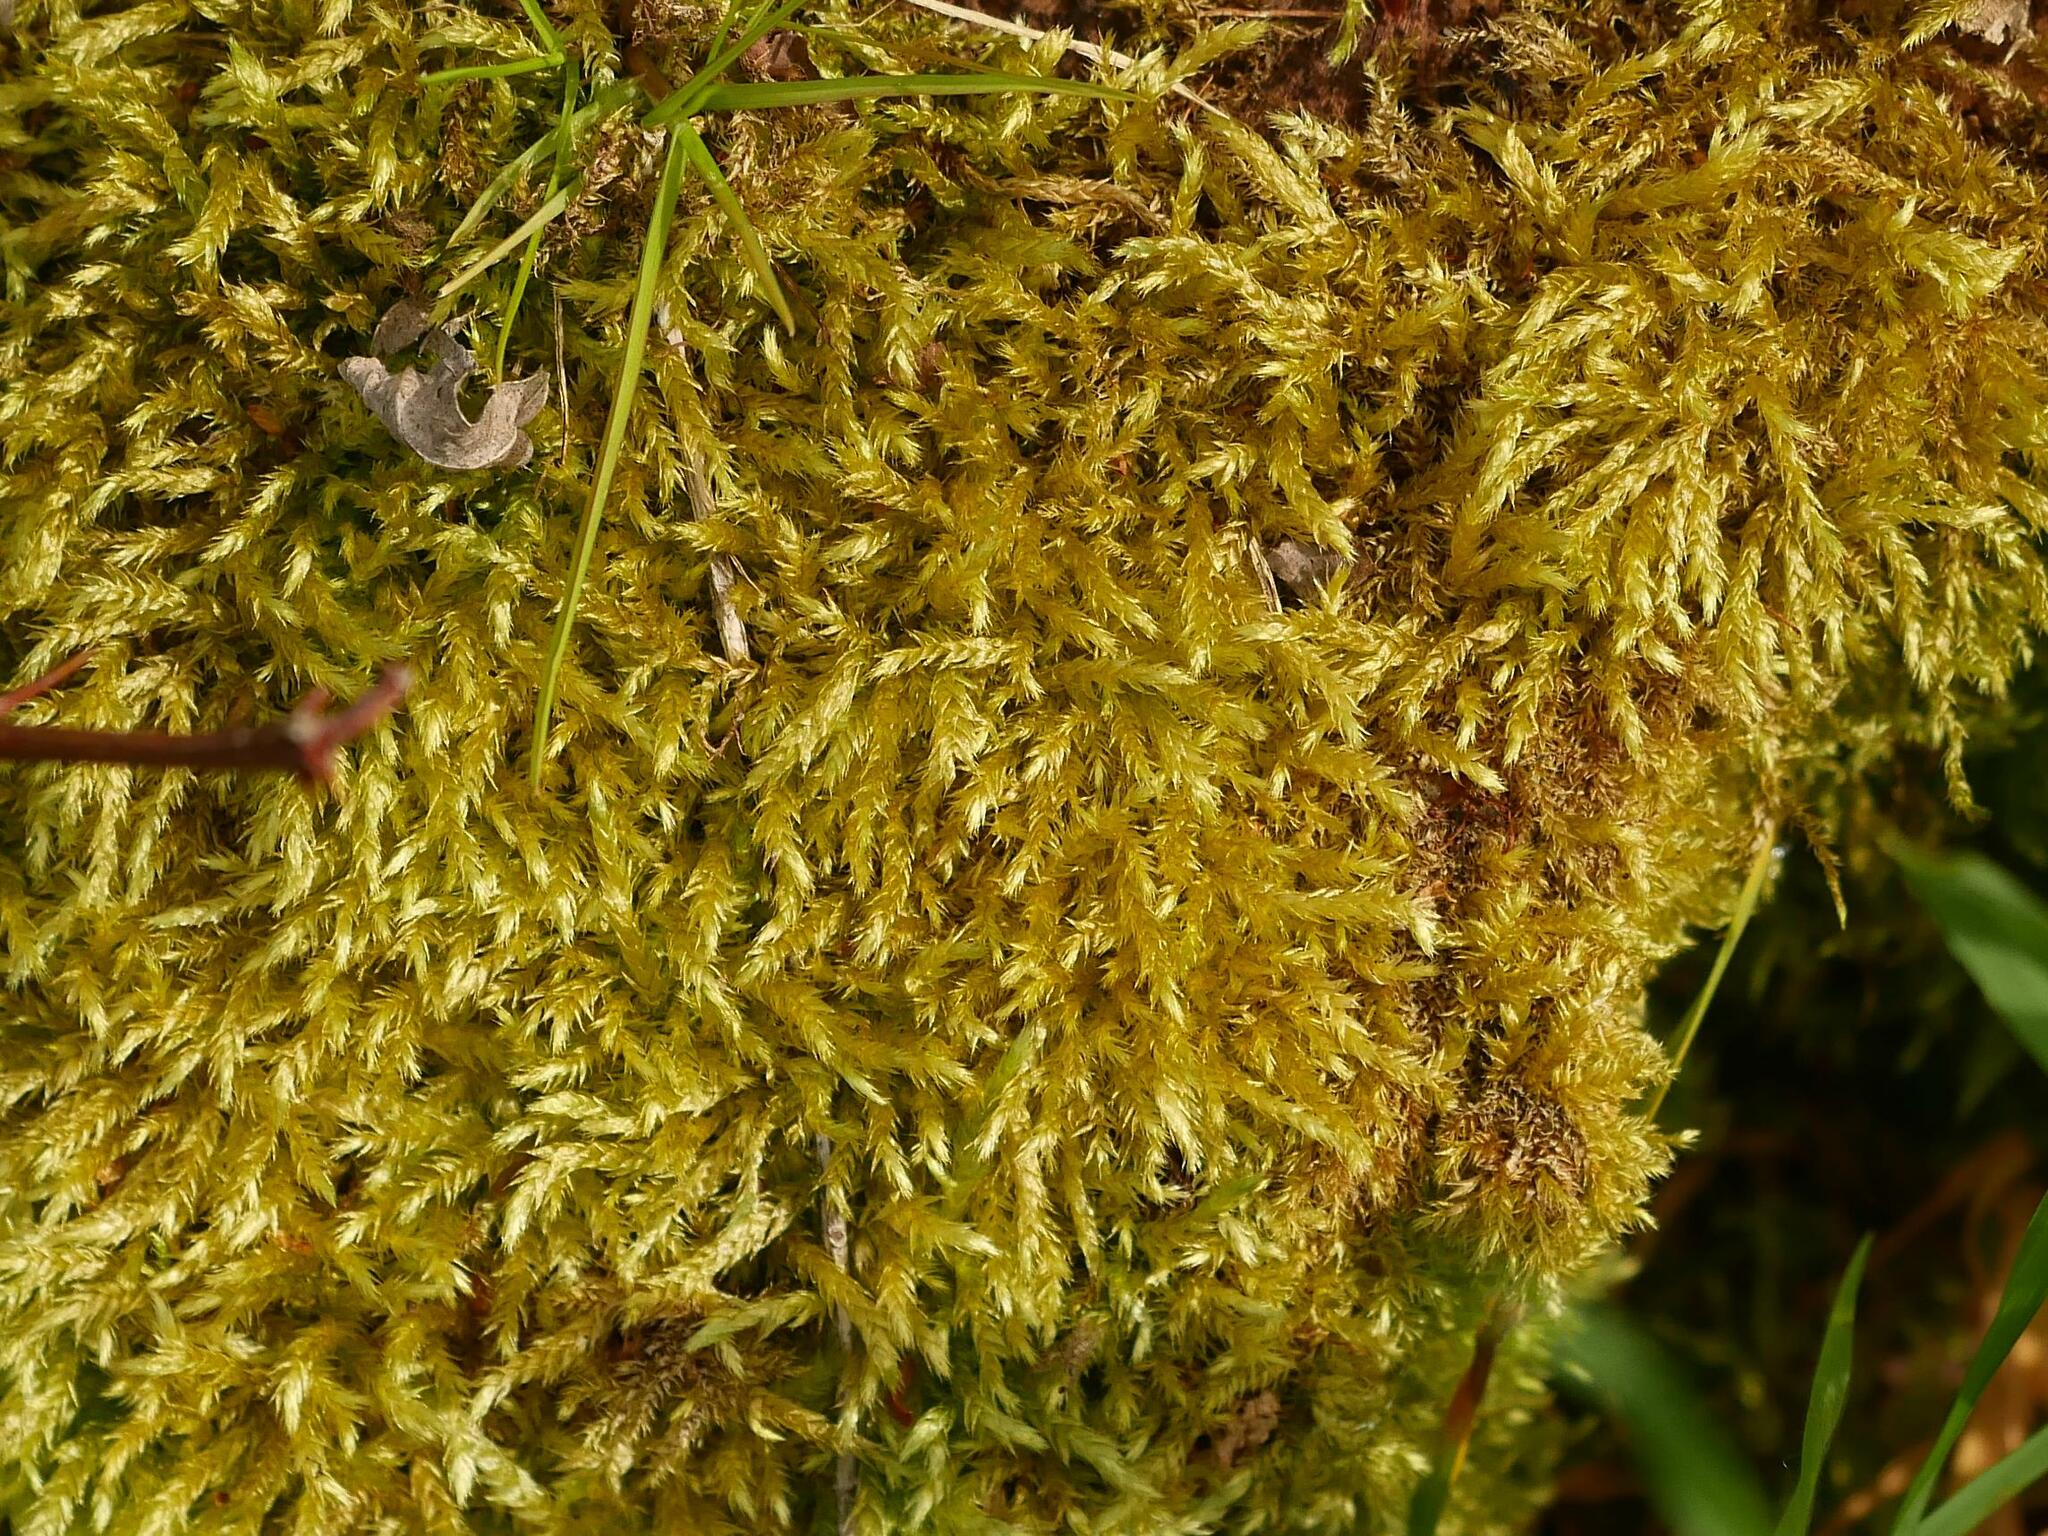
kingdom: Plantae
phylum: Bryophyta
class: Bryopsida
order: Hypnales
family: Brachytheciaceae
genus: Brachythecium
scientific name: Brachythecium rutabulum
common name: Rough-stalked feather-moss
